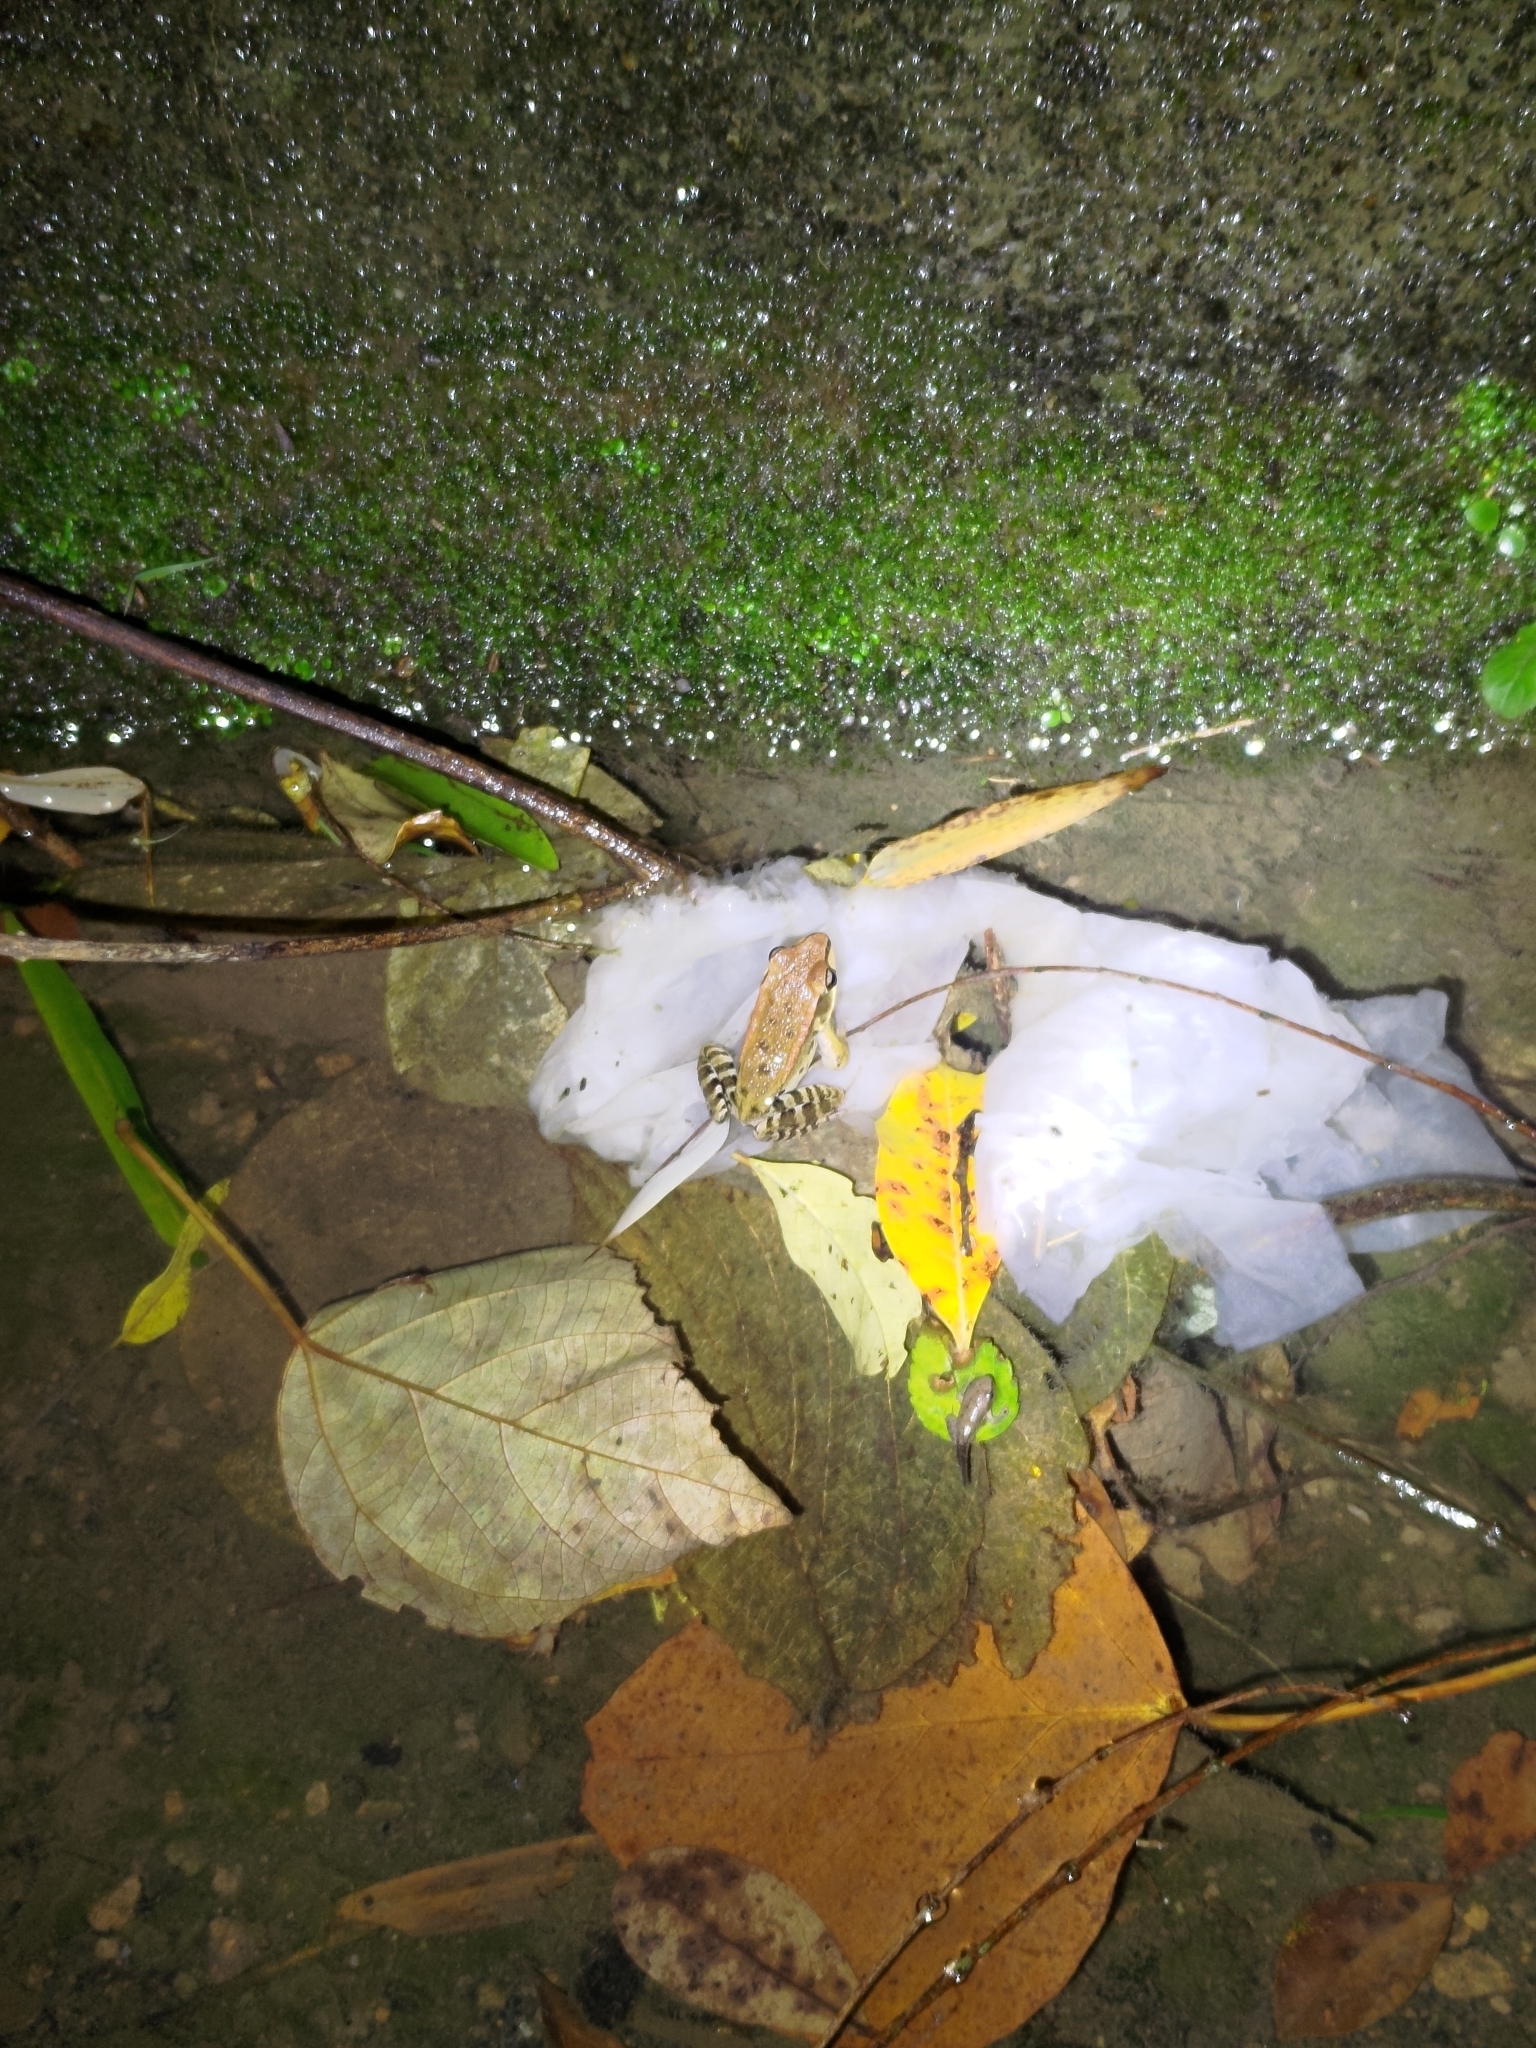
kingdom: Animalia
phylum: Chordata
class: Amphibia
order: Anura
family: Ranidae
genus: Hylarana
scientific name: Hylarana latouchii
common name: Broad-folded frog
